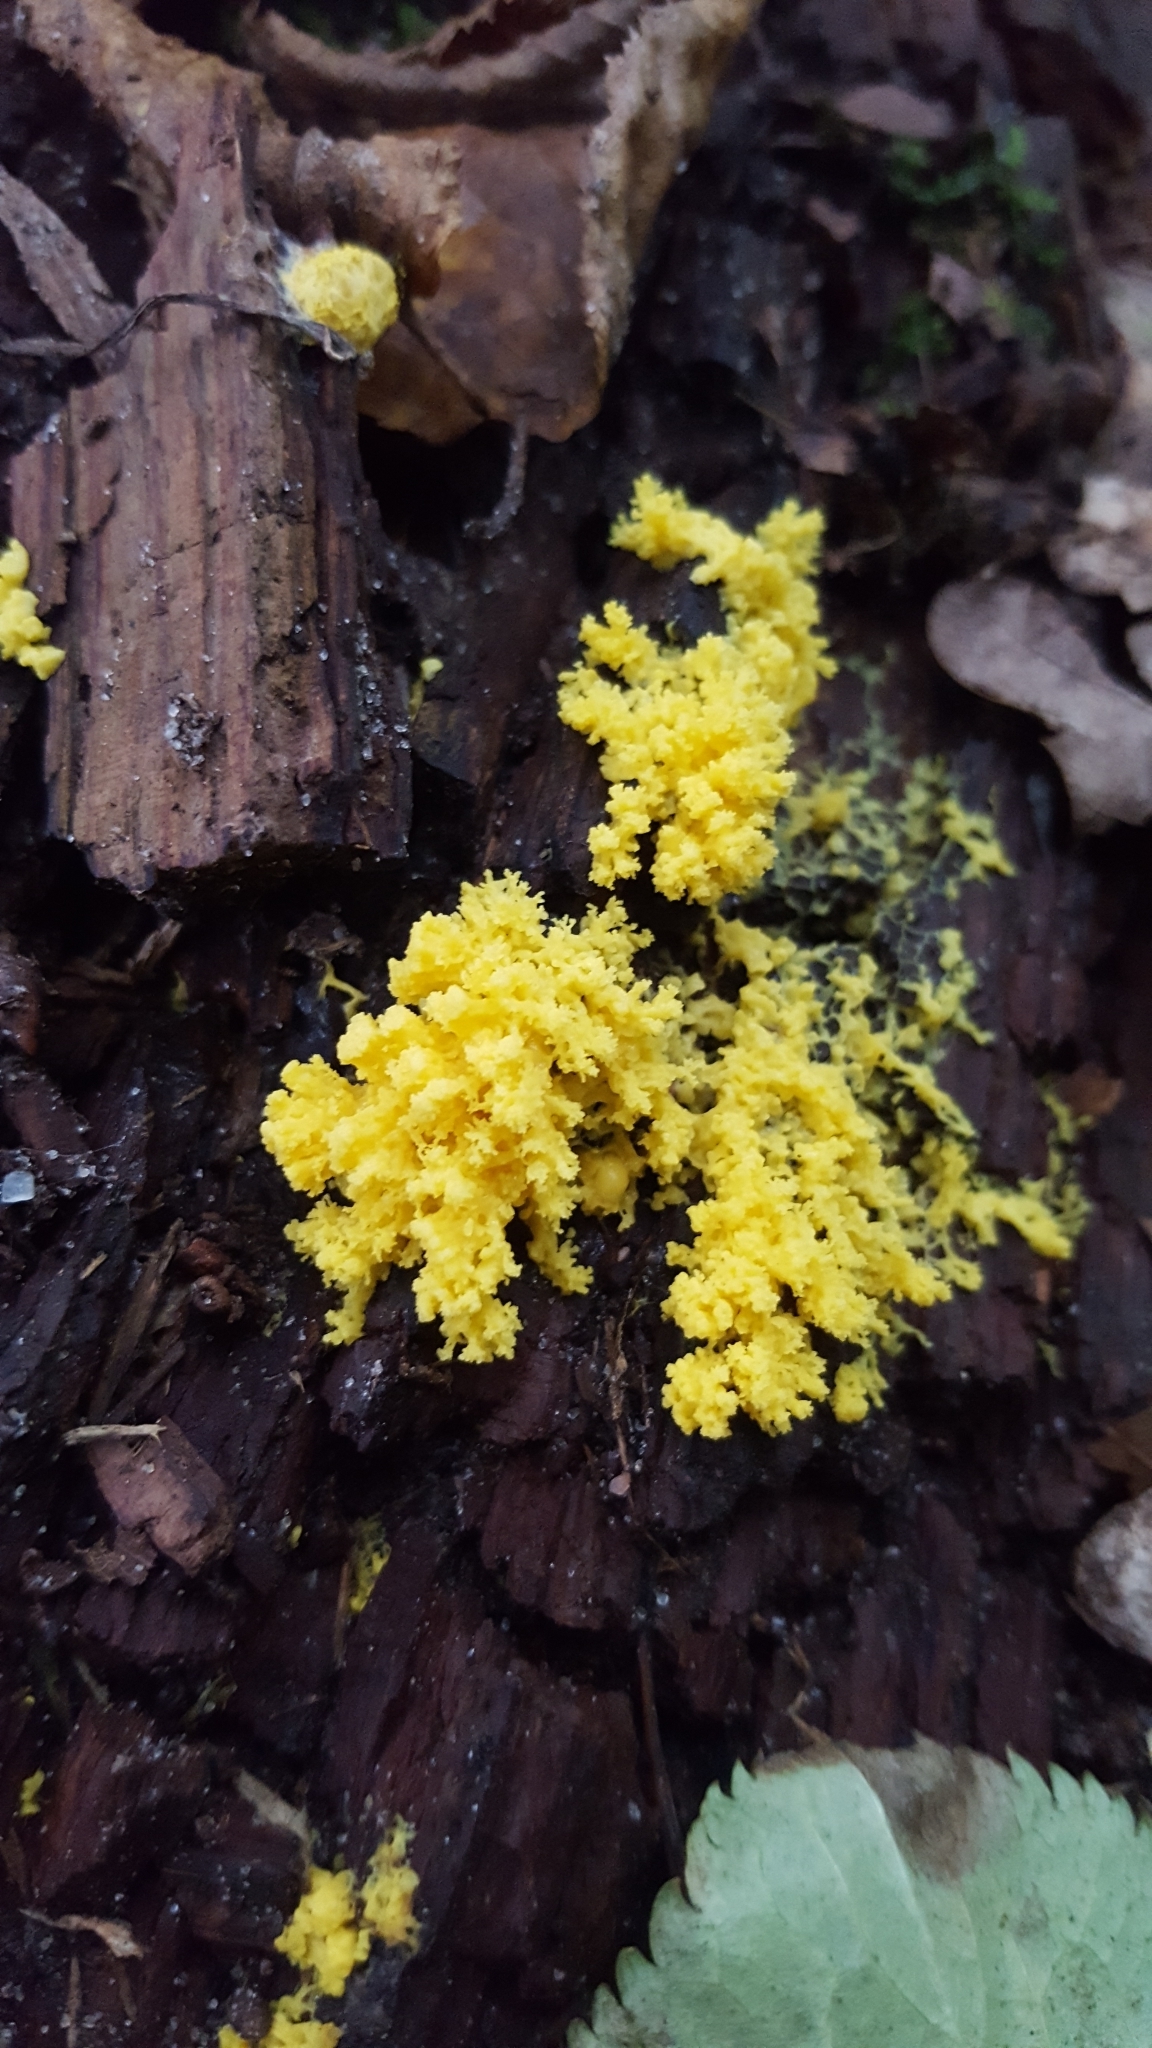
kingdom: Protozoa
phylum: Mycetozoa
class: Myxomycetes
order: Physarales
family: Physaraceae
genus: Fuligo
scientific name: Fuligo septica
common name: Dog vomit slime mold
